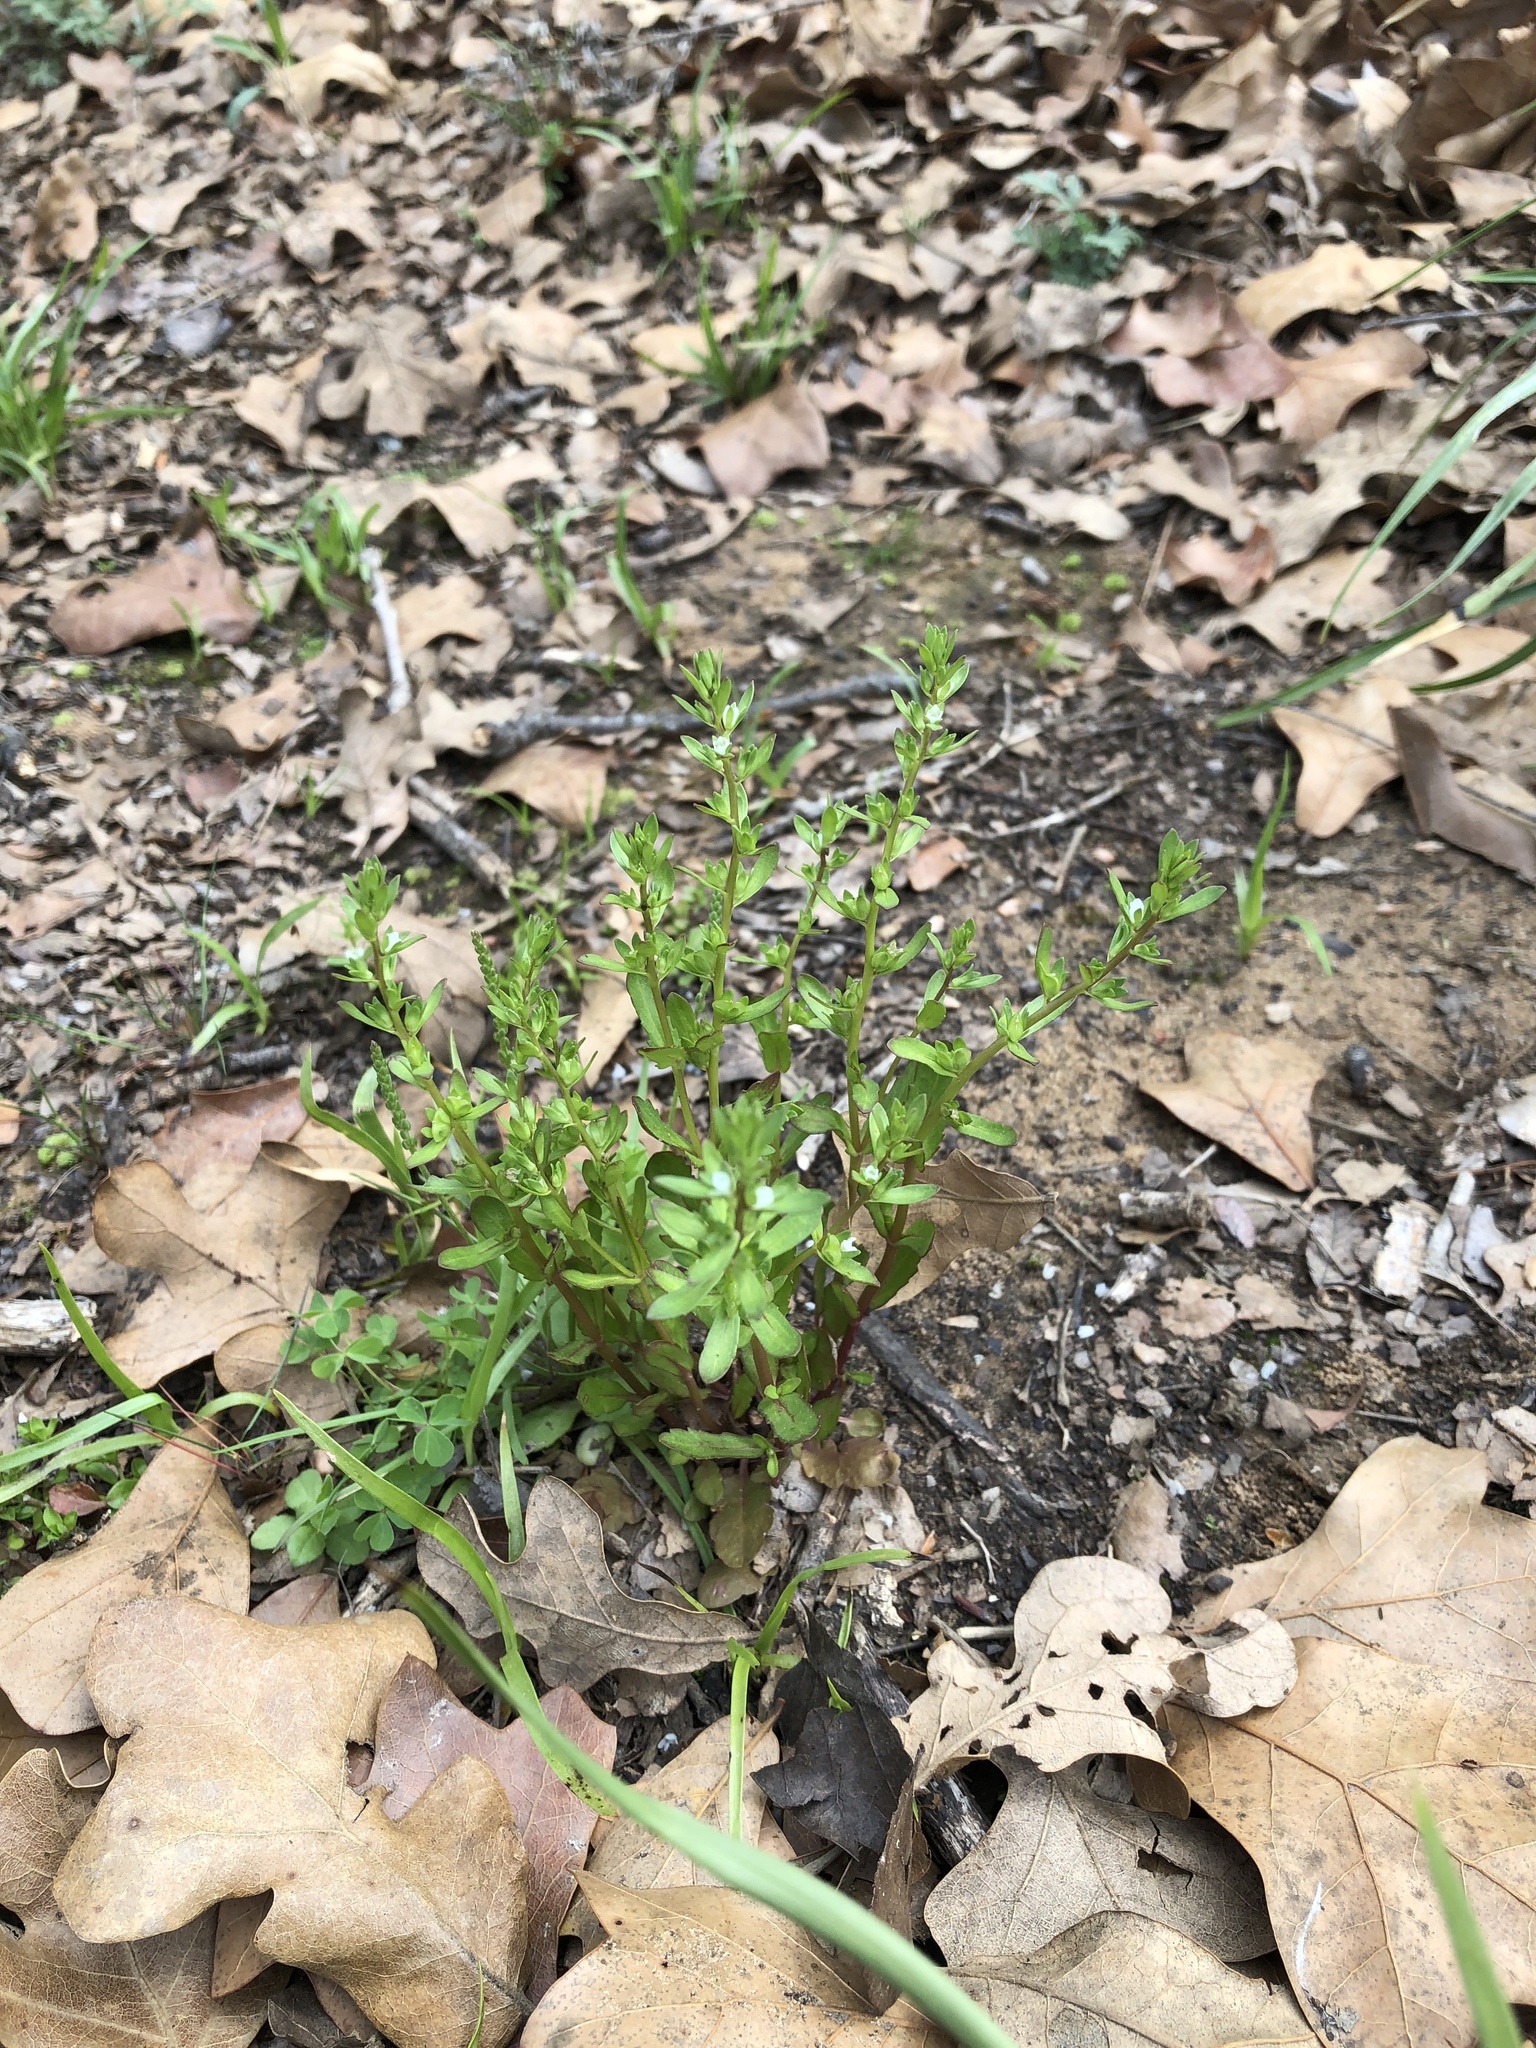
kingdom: Plantae
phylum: Tracheophyta
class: Magnoliopsida
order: Lamiales
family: Plantaginaceae
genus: Veronica
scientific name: Veronica peregrina
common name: Neckweed
